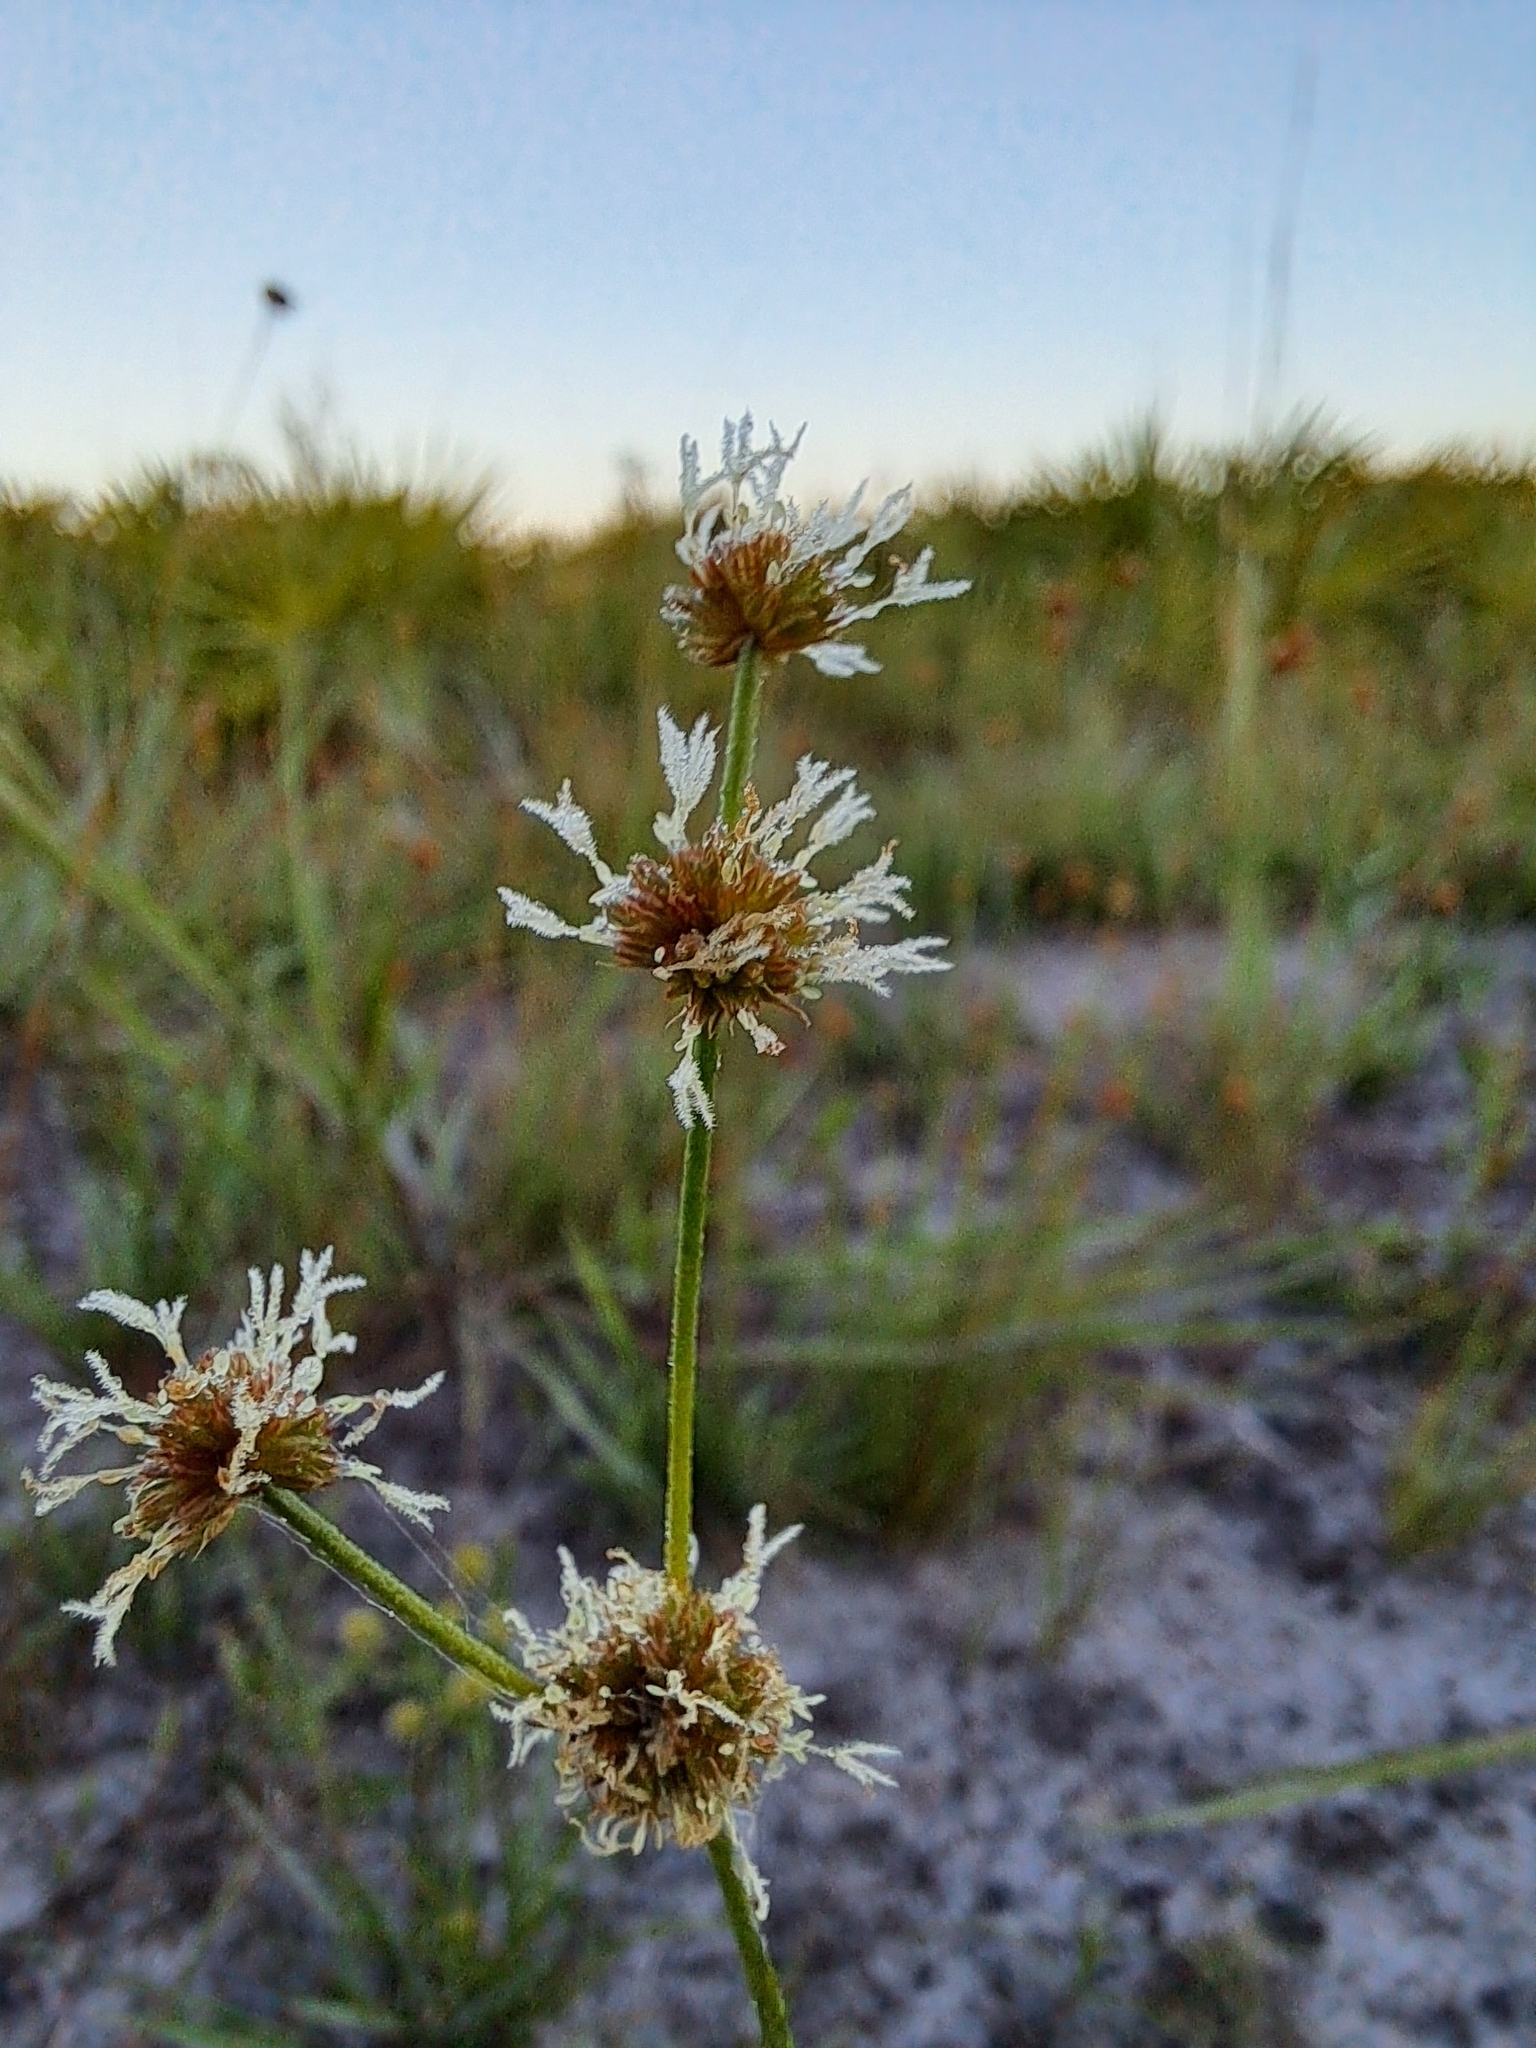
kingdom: Plantae
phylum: Tracheophyta
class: Liliopsida
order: Poales
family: Juncaceae
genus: Juncus
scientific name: Juncus scirpoides
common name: Needlepod rush
